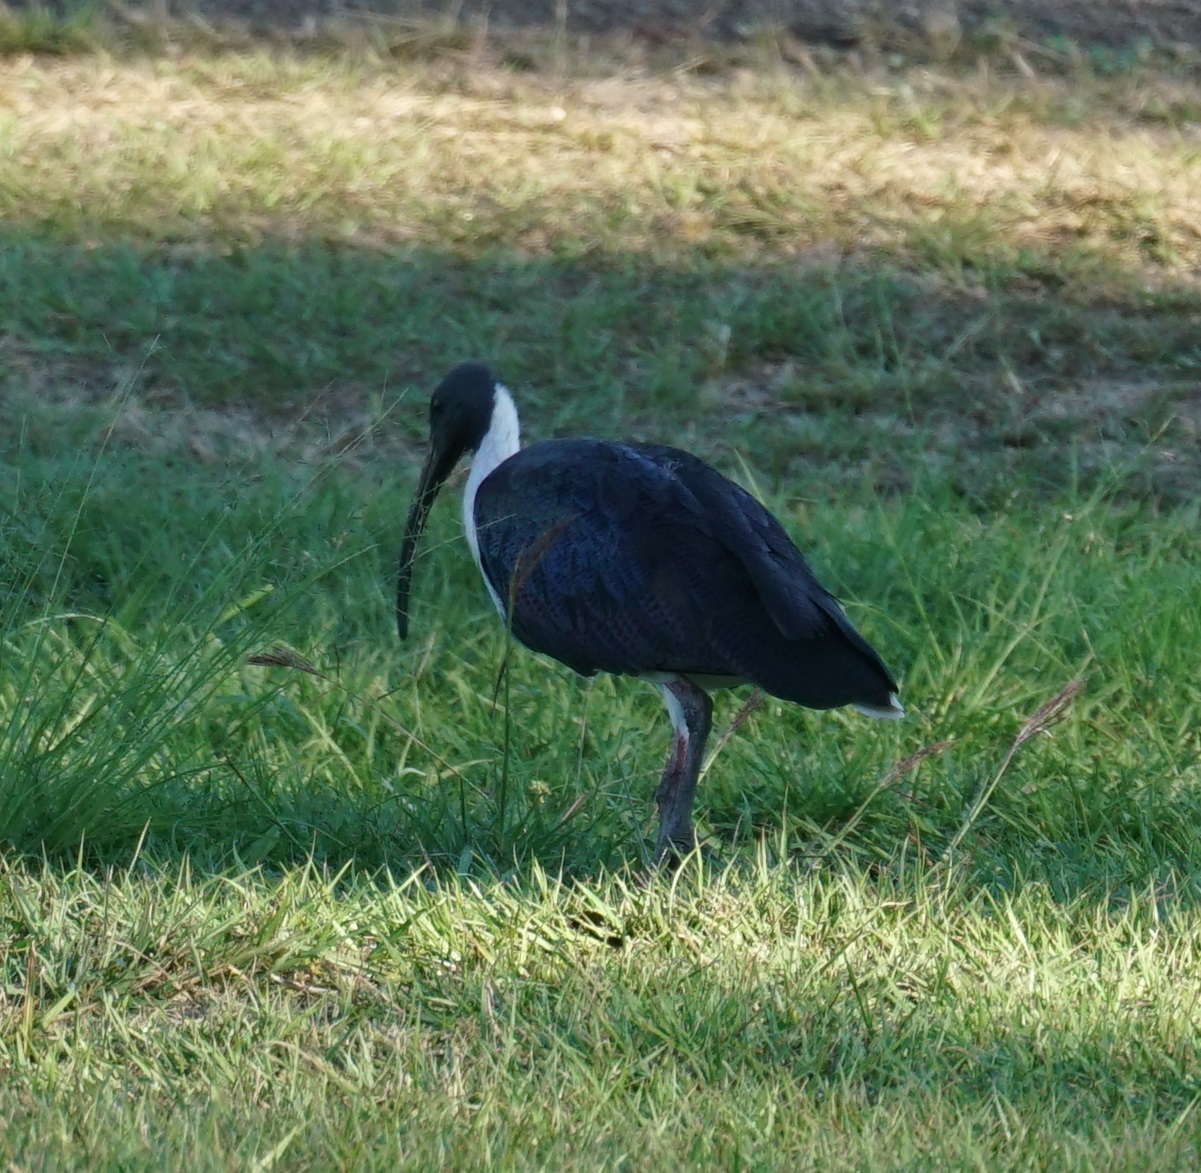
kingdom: Animalia
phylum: Chordata
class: Aves
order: Pelecaniformes
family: Threskiornithidae
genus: Threskiornis
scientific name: Threskiornis spinicollis
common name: Straw-necked ibis
